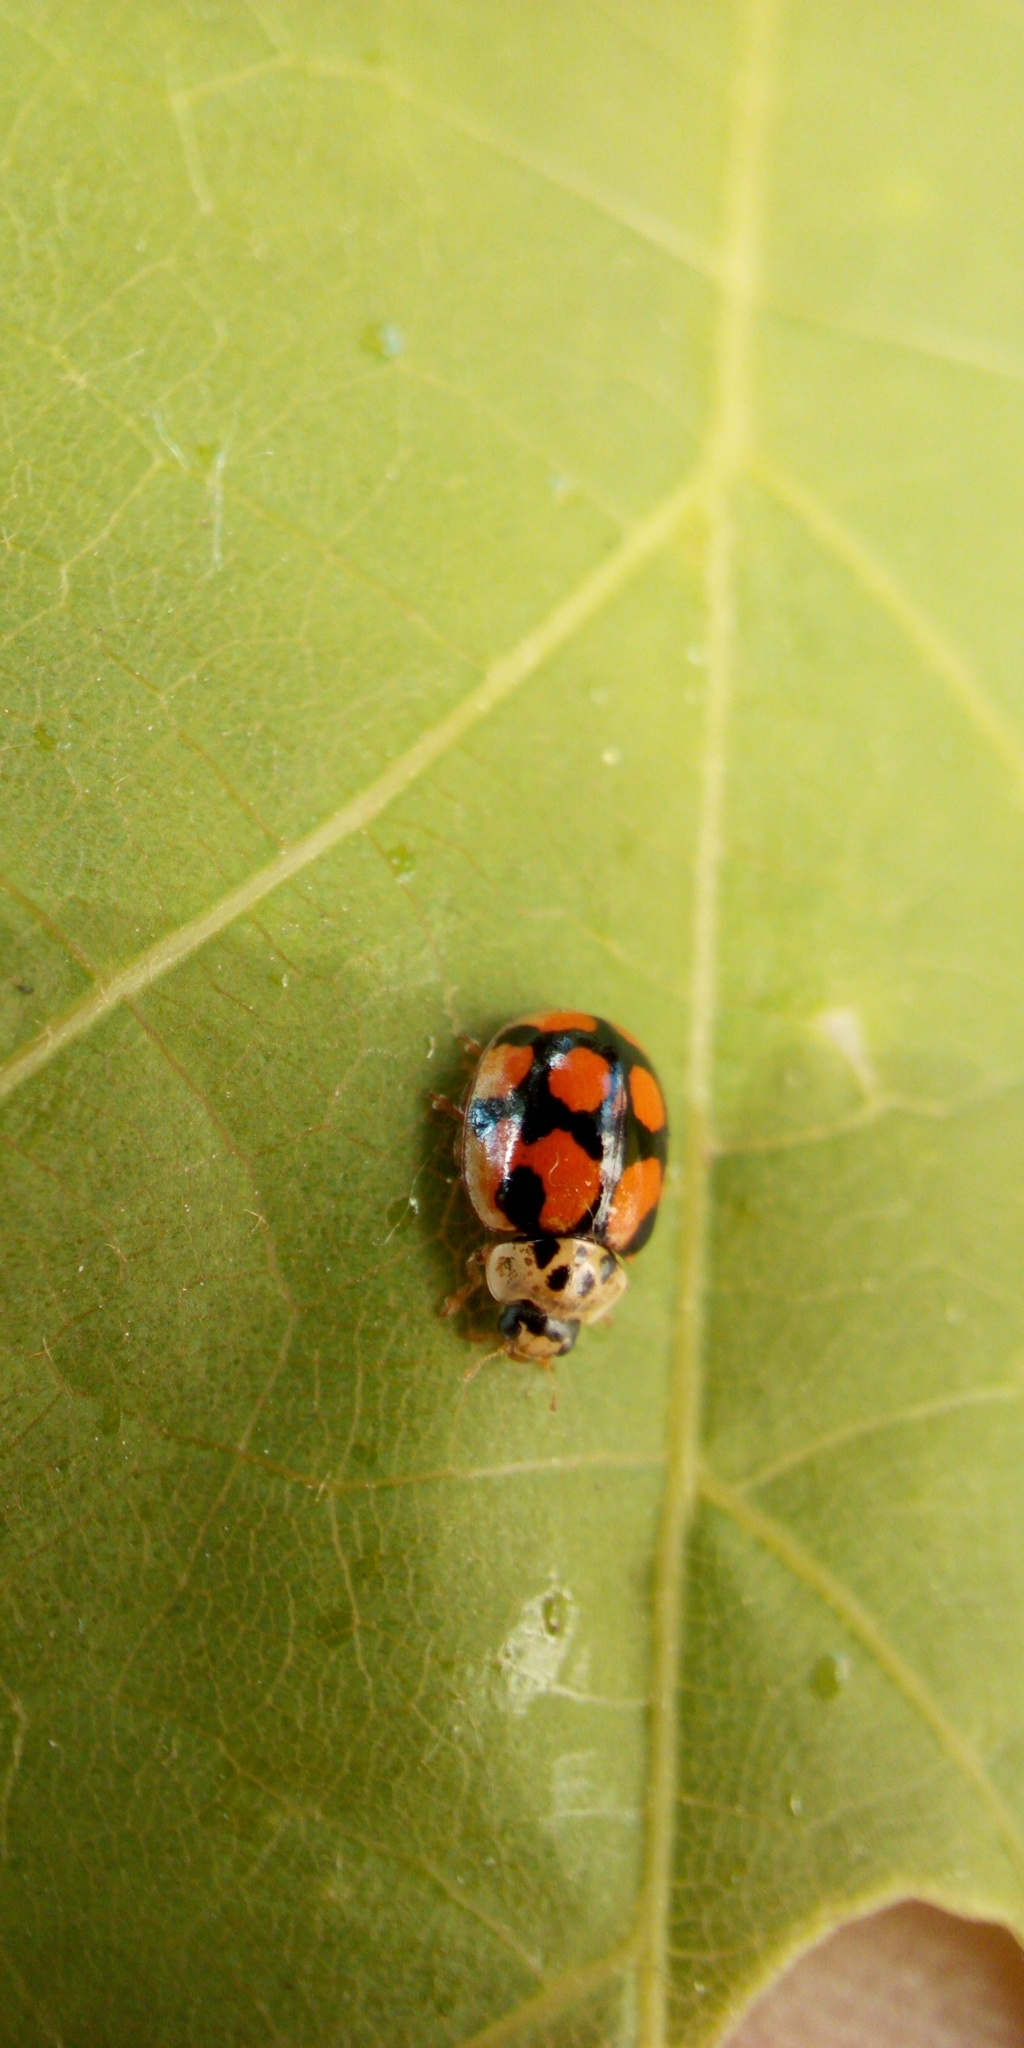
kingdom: Animalia
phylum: Arthropoda
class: Insecta
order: Coleoptera
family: Coccinellidae
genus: Adalia
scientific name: Adalia decempunctata
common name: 10-spot ladybird
